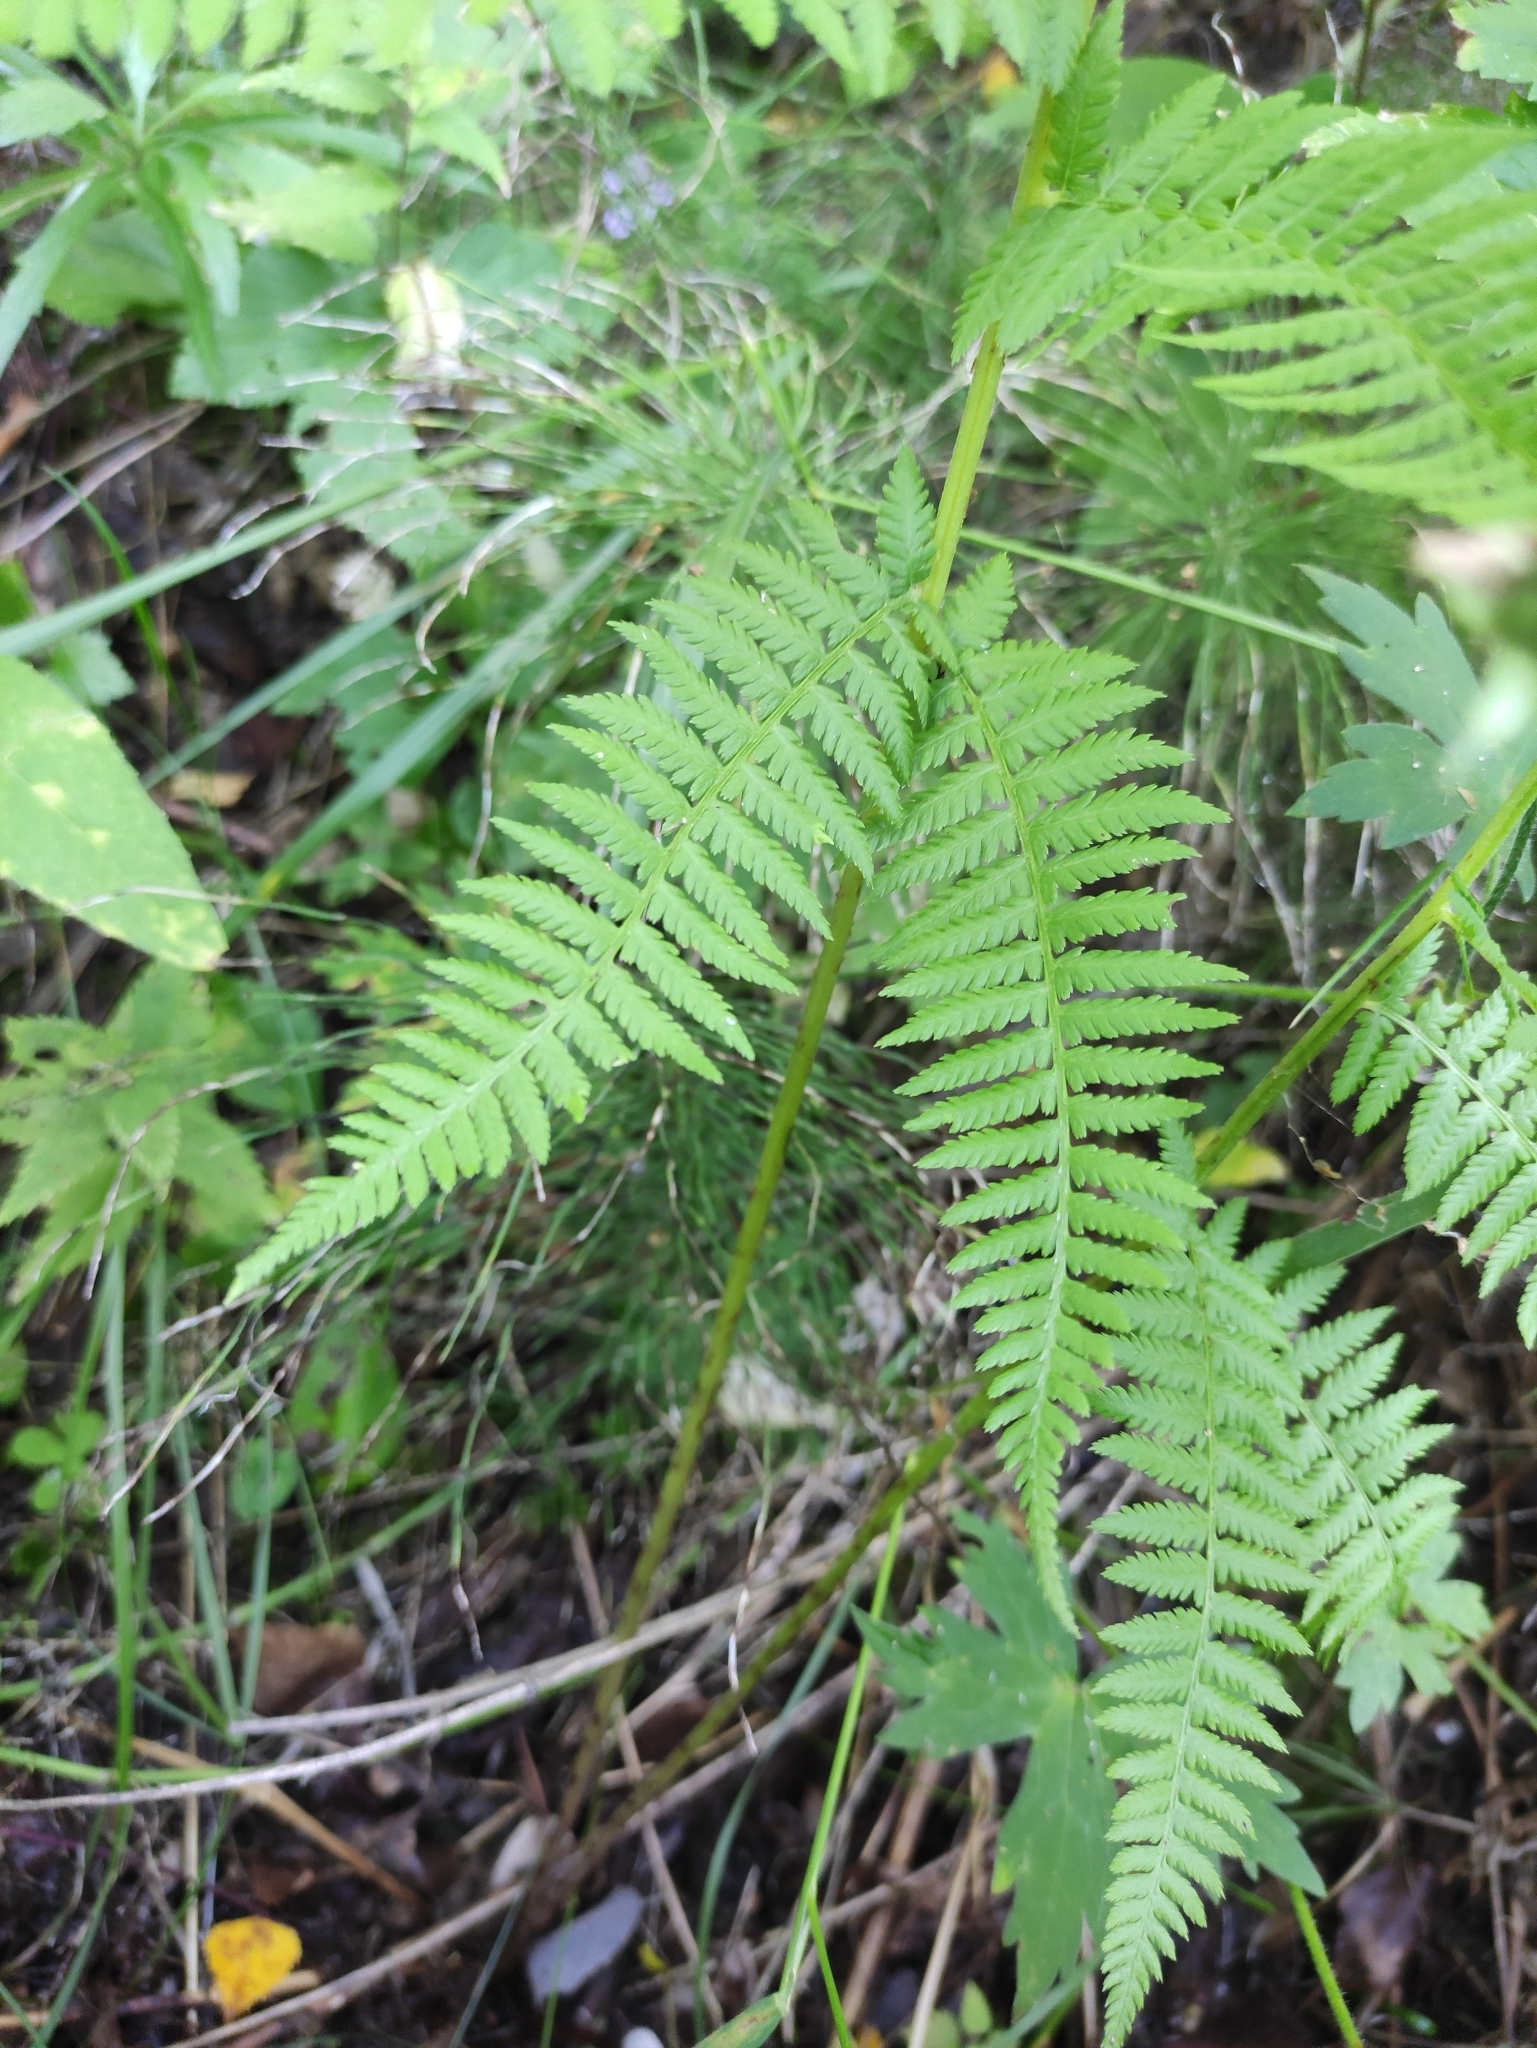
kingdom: Plantae
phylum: Tracheophyta
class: Polypodiopsida
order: Polypodiales
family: Athyriaceae
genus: Athyrium
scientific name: Athyrium filix-femina
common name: Lady fern
